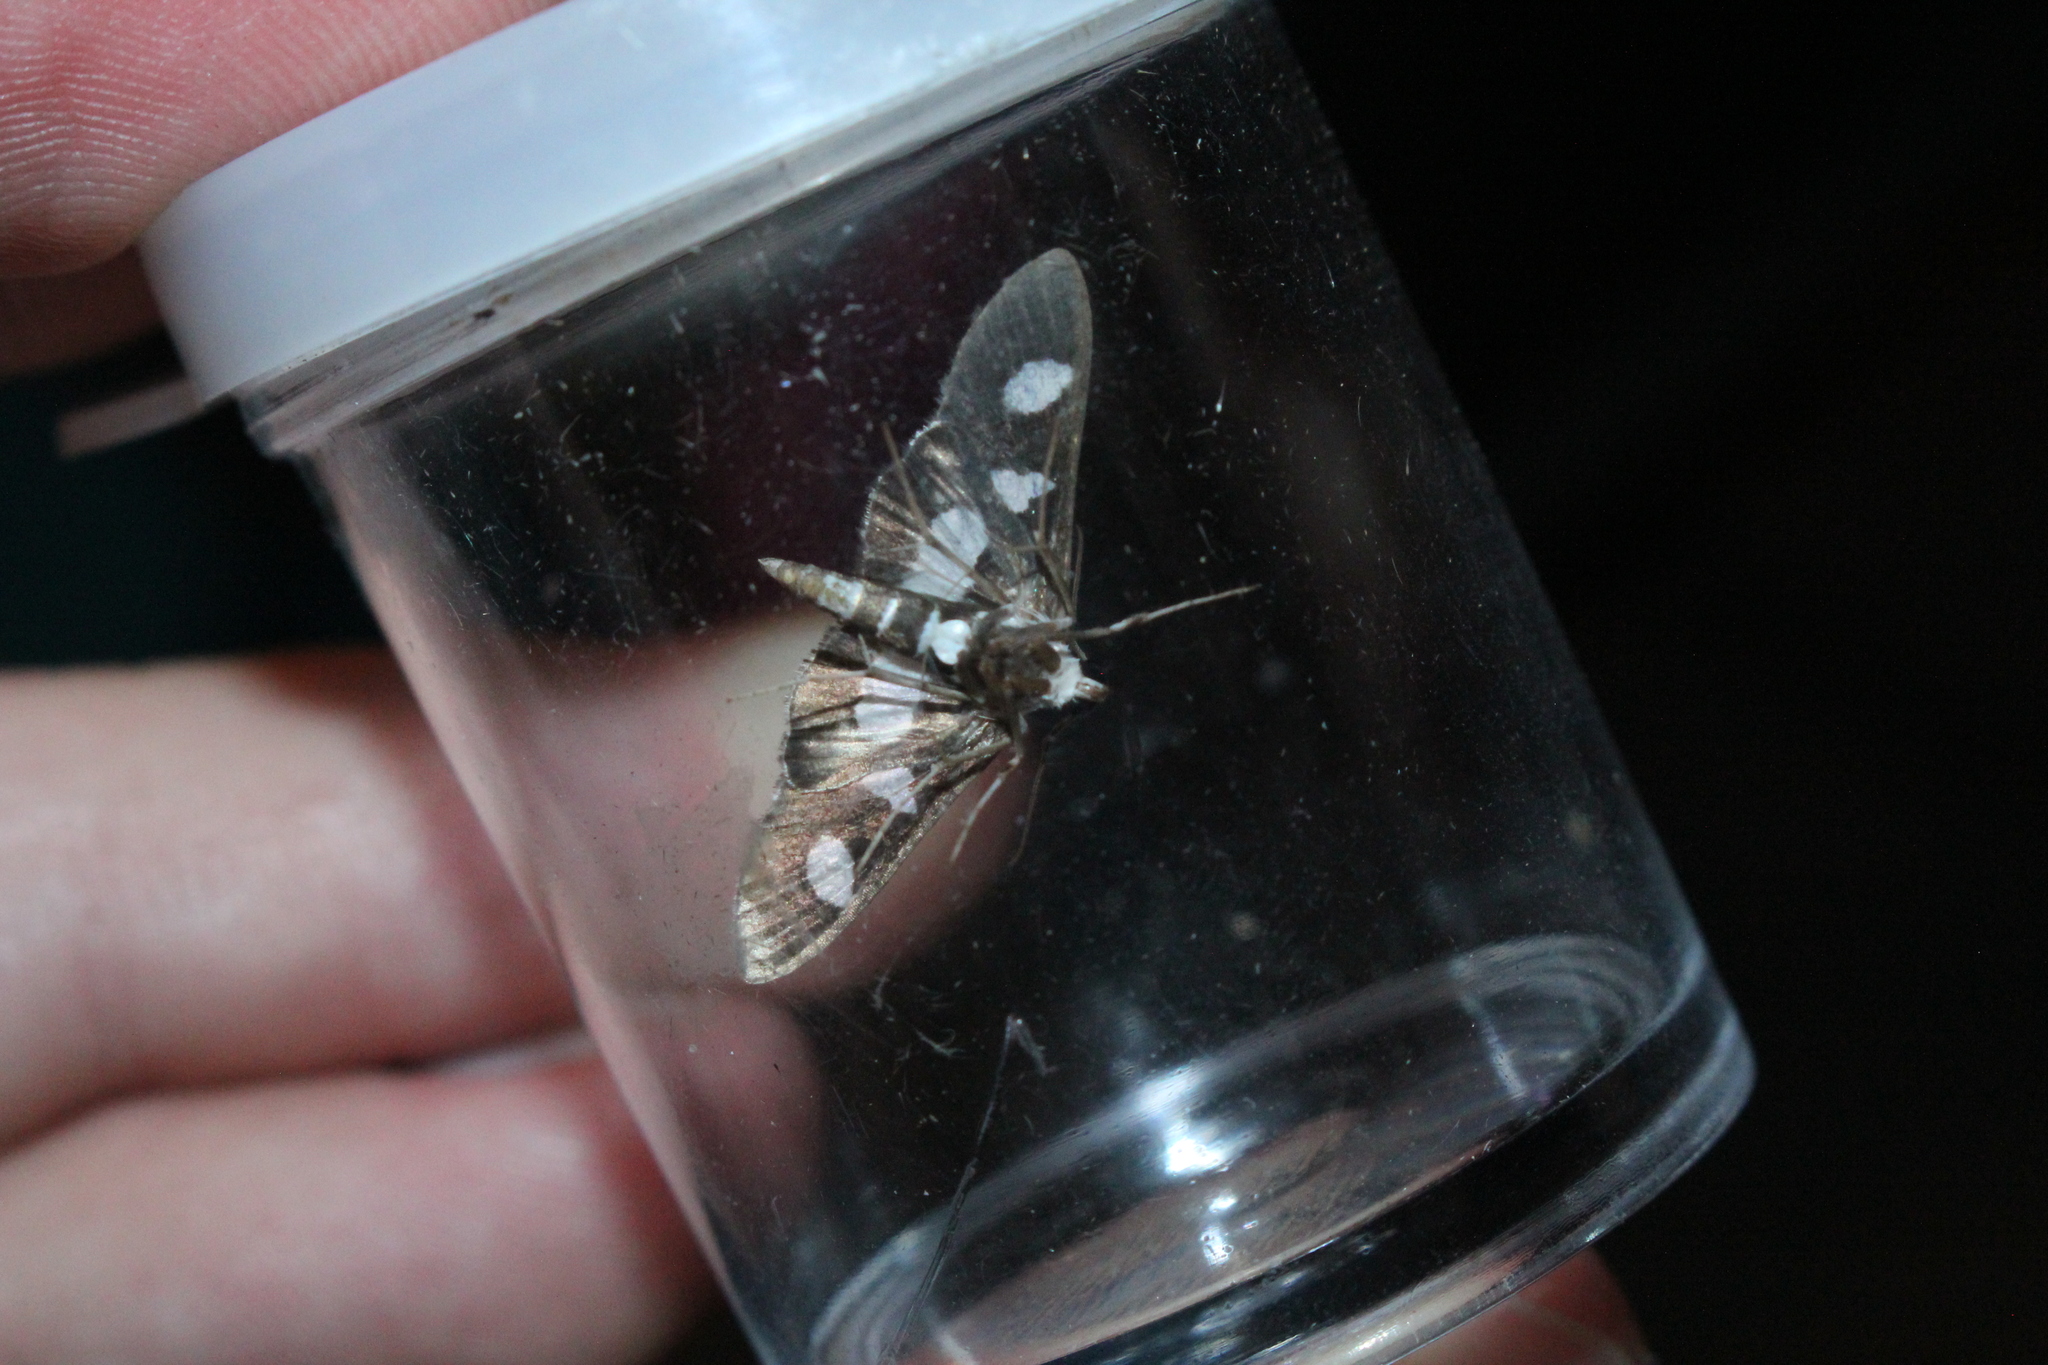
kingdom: Animalia
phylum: Arthropoda
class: Insecta
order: Lepidoptera
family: Crambidae
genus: Desmia
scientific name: Desmia funeralis
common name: Grape leaf folder moth
